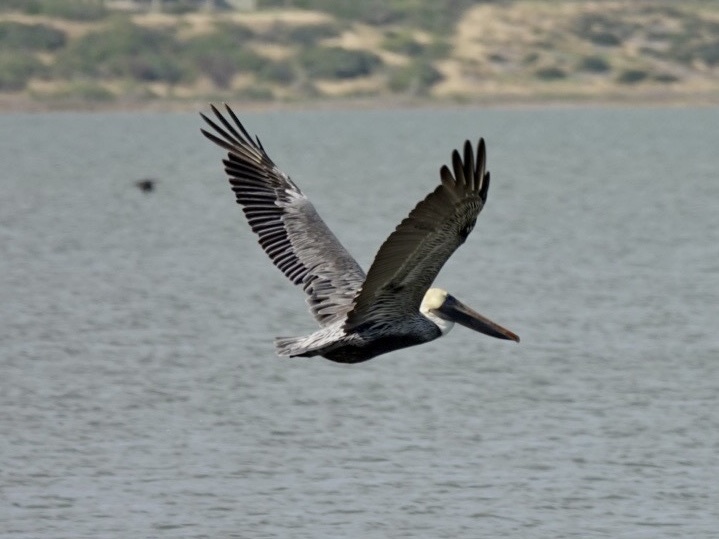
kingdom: Animalia
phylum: Chordata
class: Aves
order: Pelecaniformes
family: Pelecanidae
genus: Pelecanus
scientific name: Pelecanus occidentalis
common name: Brown pelican
